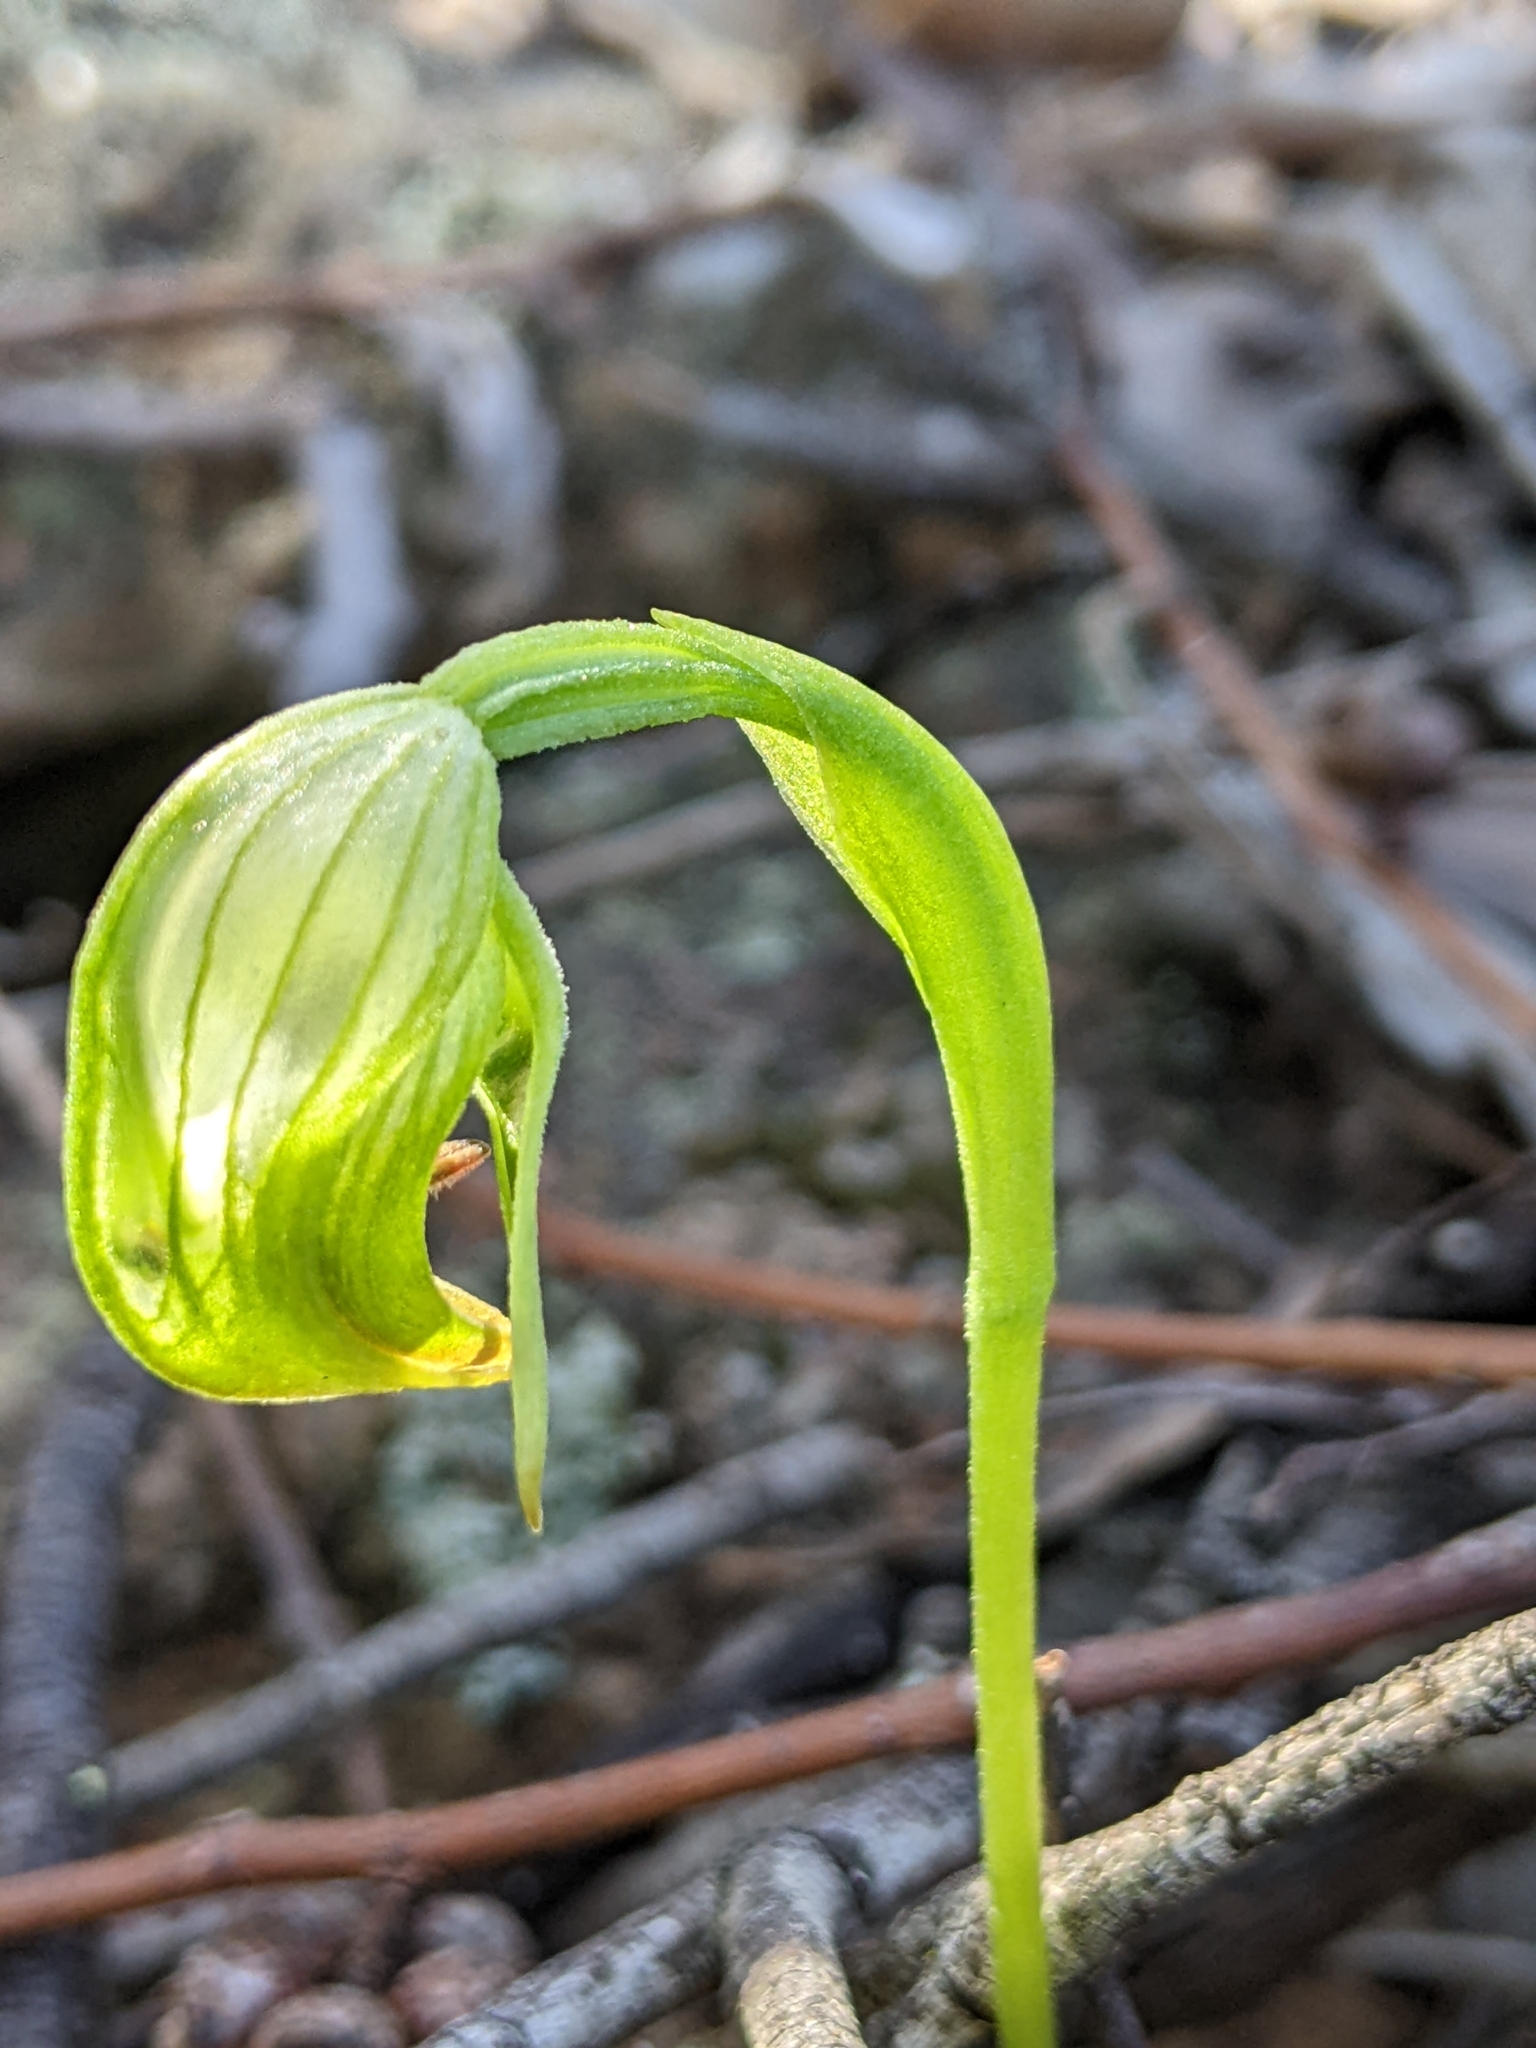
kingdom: Plantae
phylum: Tracheophyta
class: Liliopsida
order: Asparagales
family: Orchidaceae
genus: Pterostylis
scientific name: Pterostylis nutans
